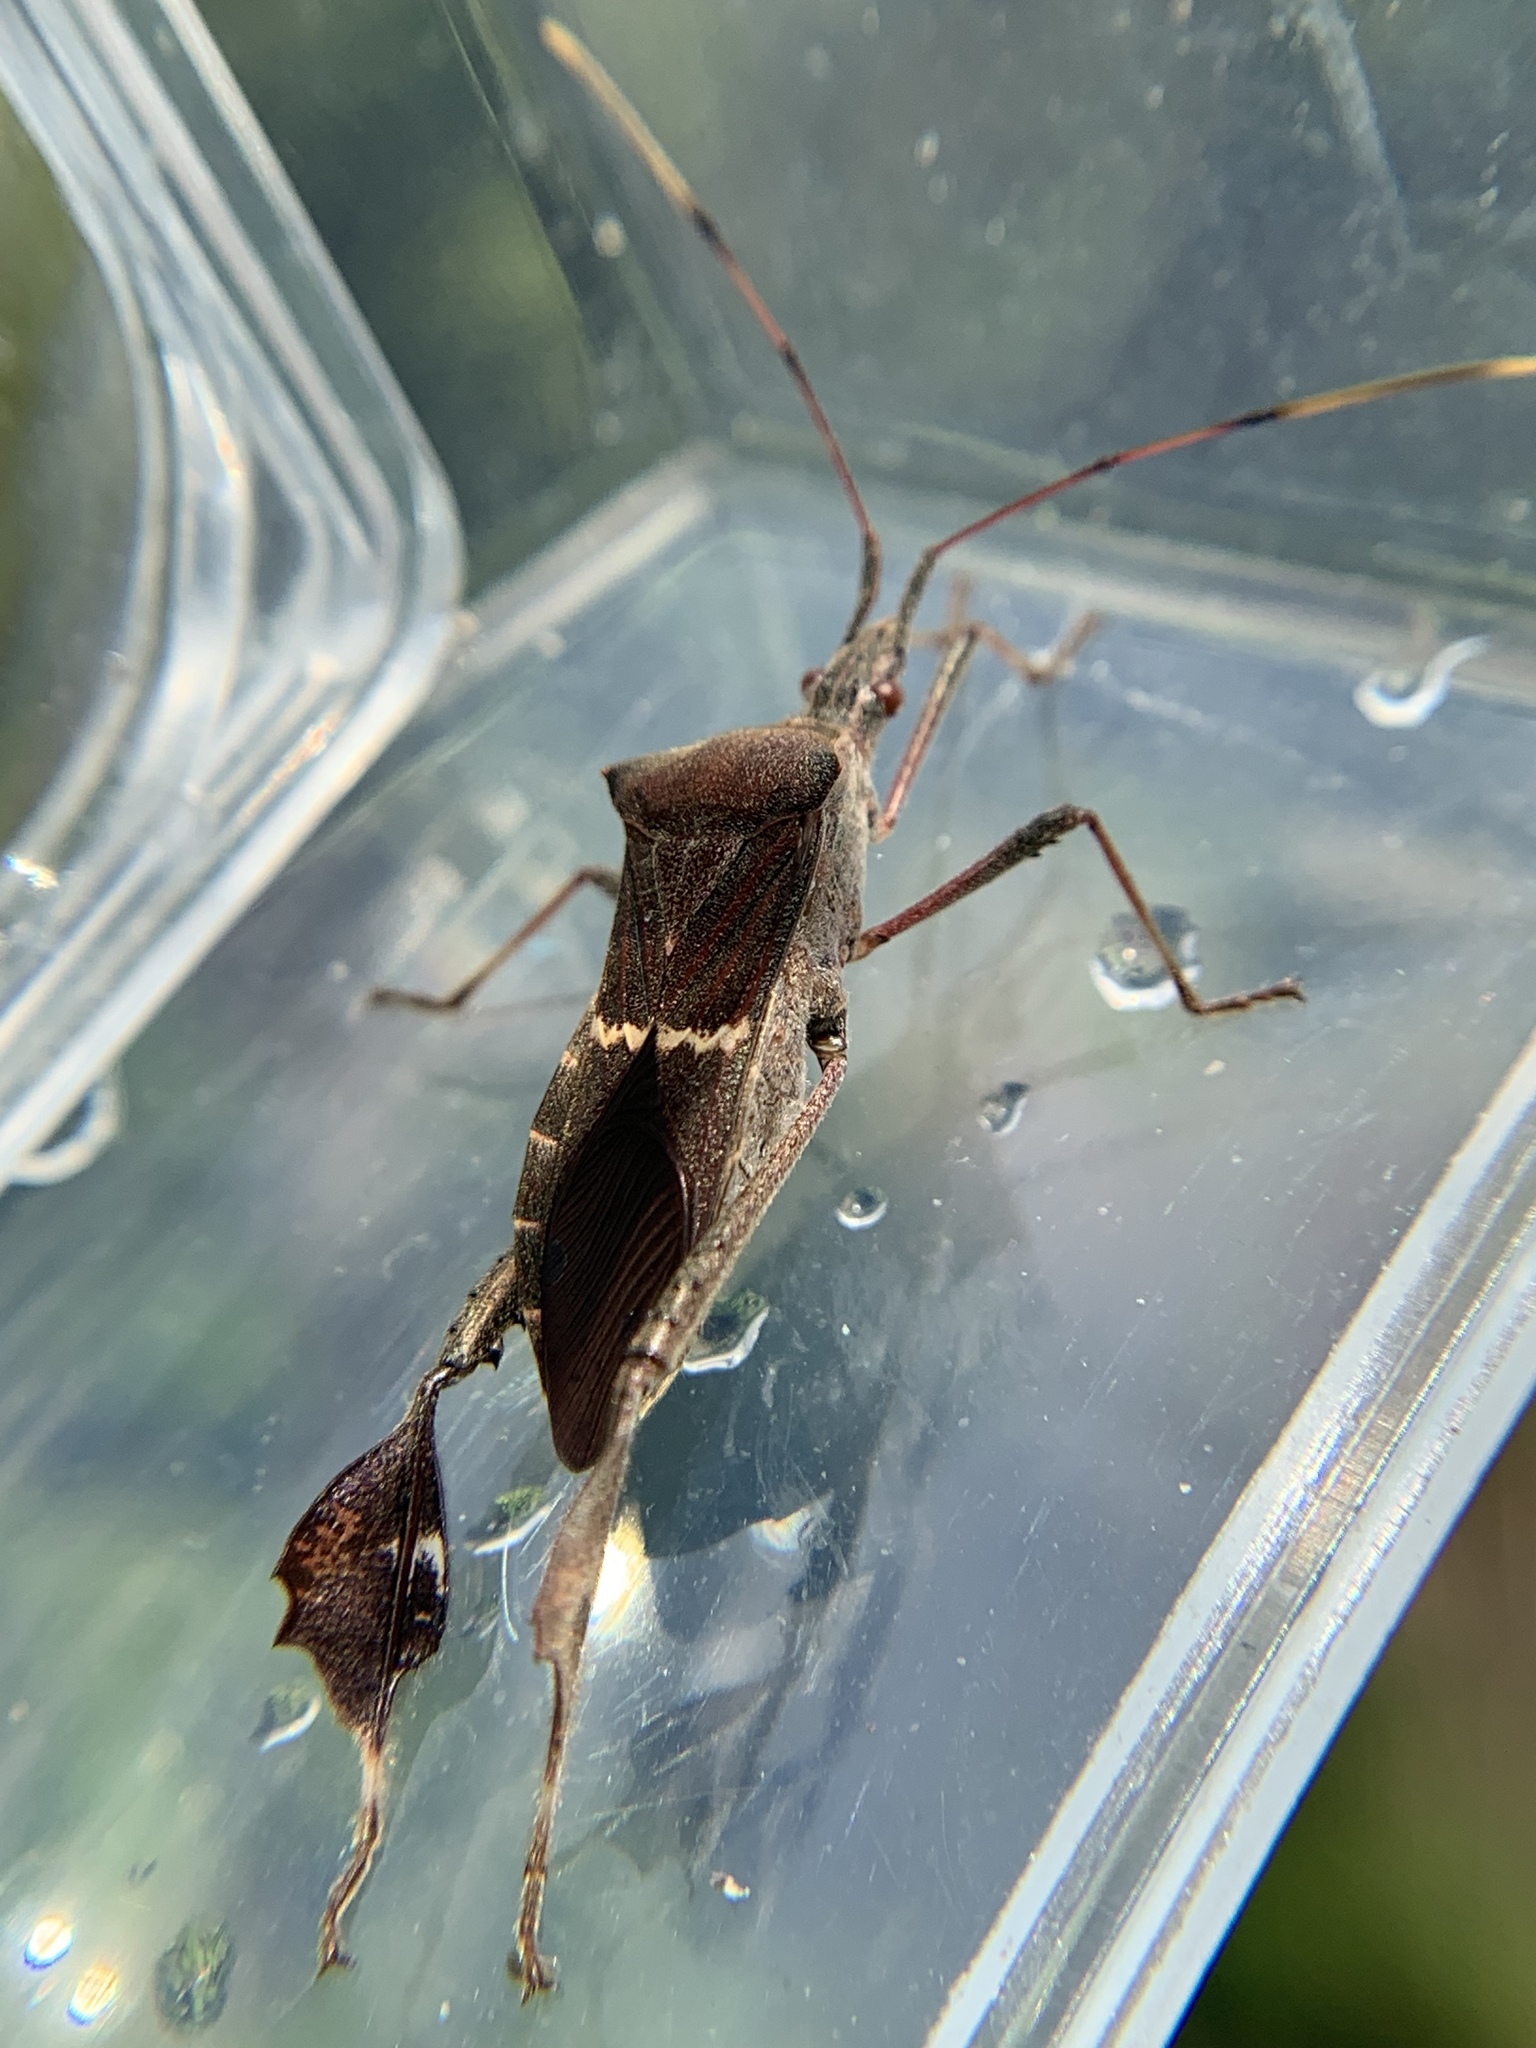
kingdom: Animalia
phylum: Arthropoda
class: Insecta
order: Hemiptera
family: Coreidae
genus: Leptoglossus
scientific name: Leptoglossus concolor
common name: Leaf-footed bug
